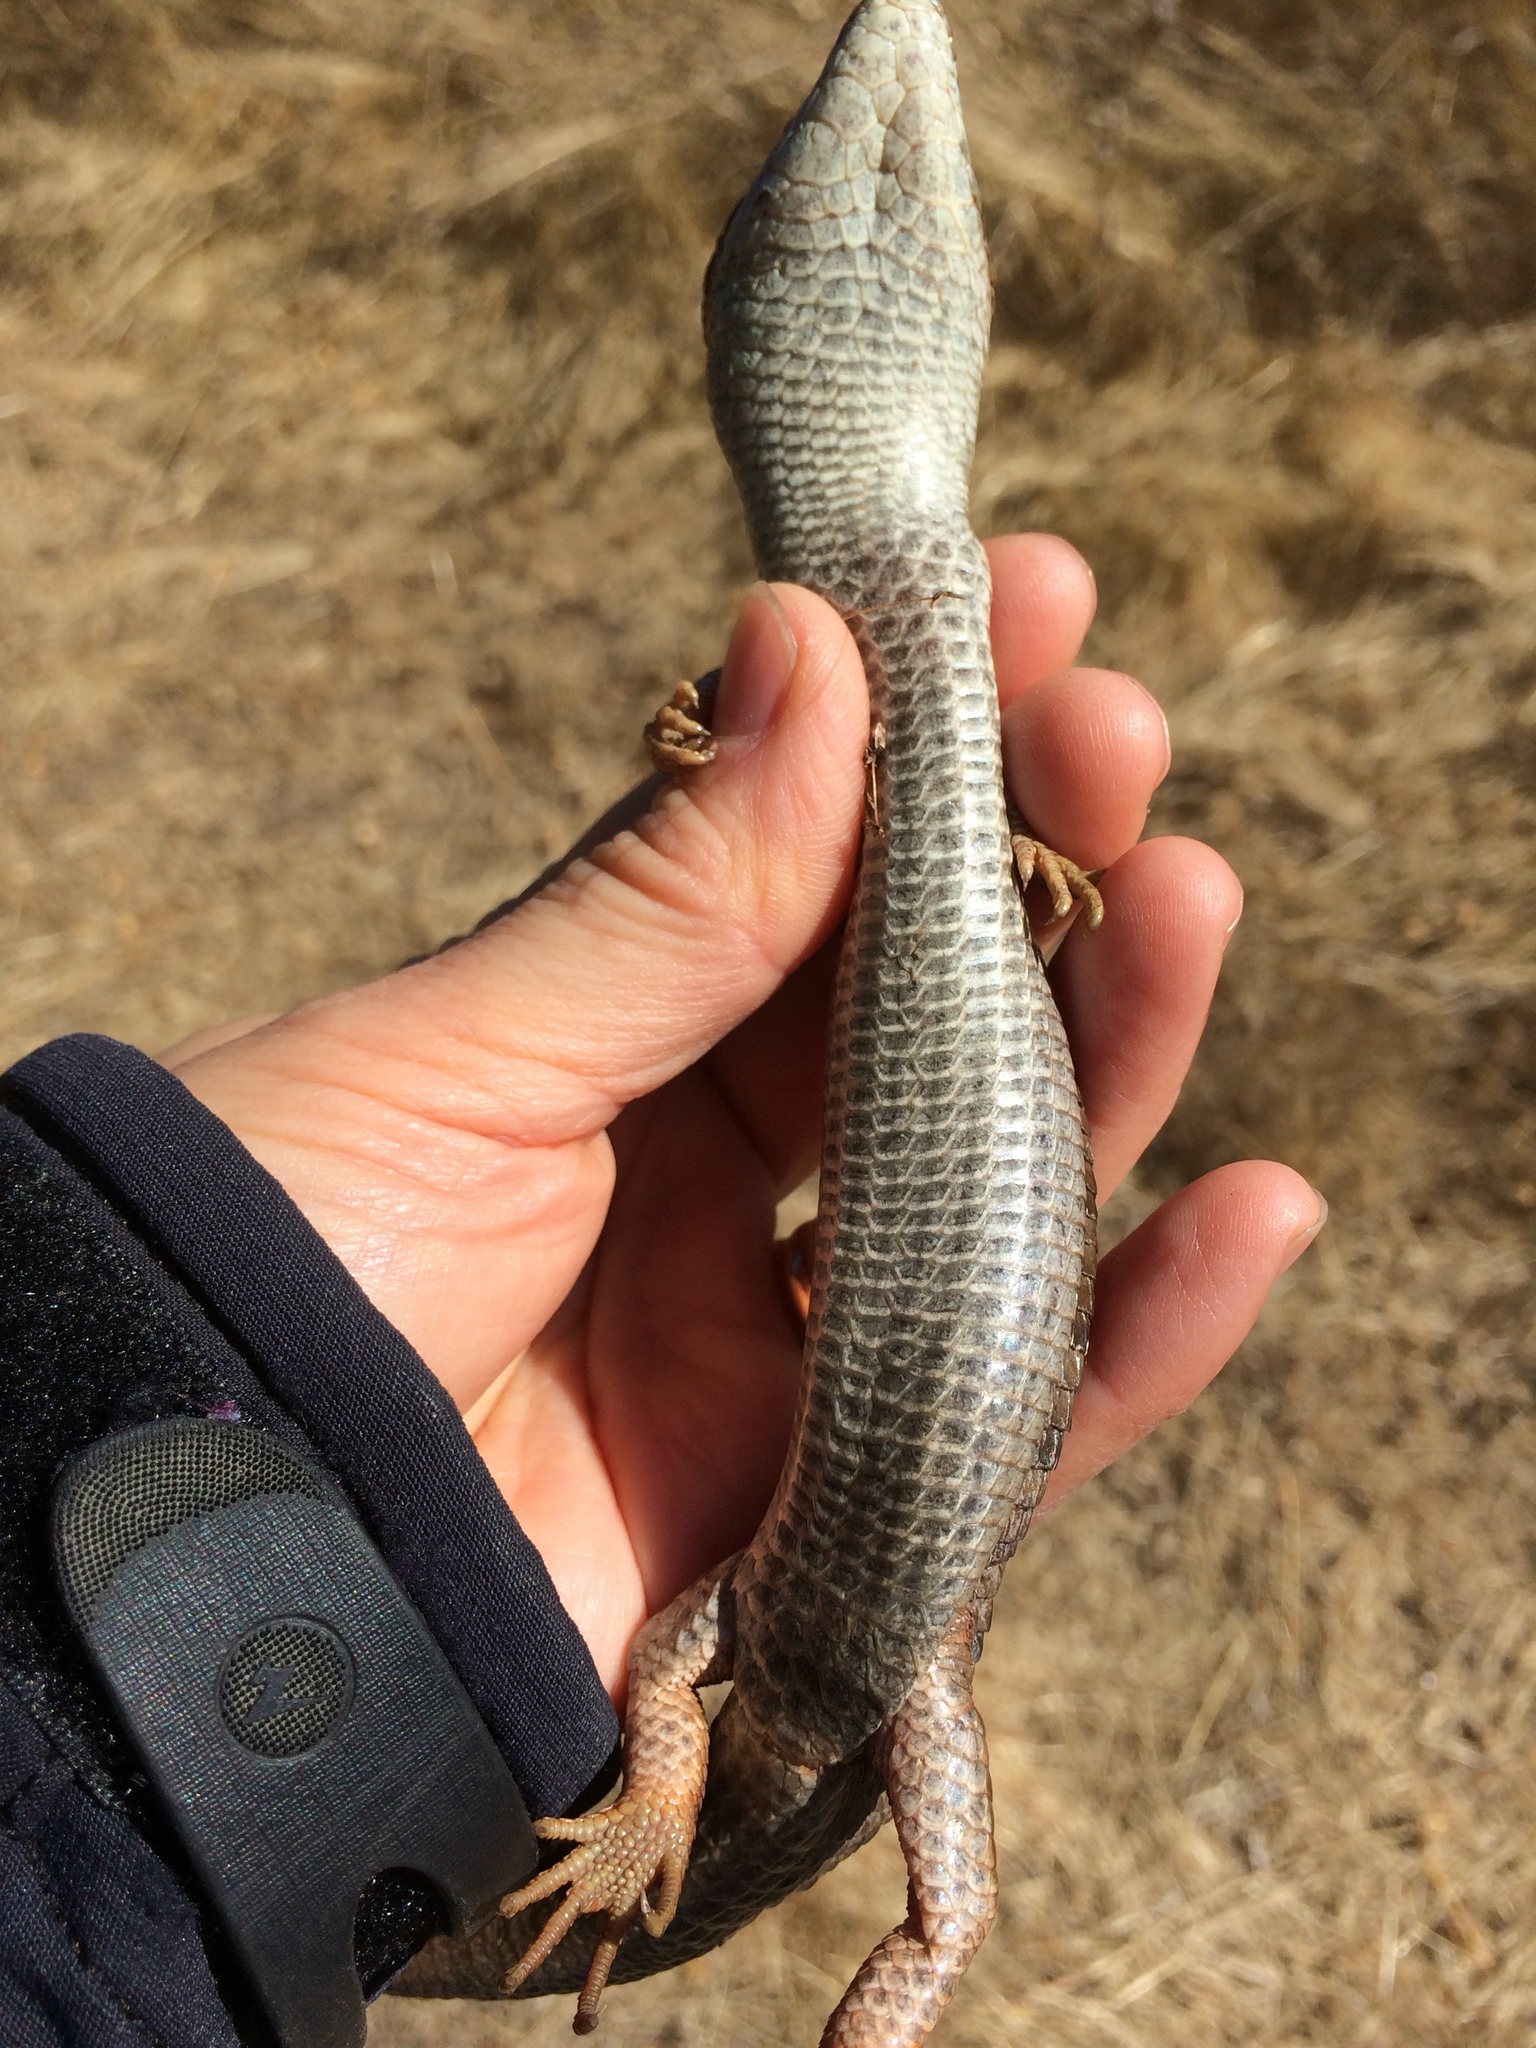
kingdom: Animalia
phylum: Chordata
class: Squamata
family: Anguidae
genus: Elgaria
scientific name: Elgaria multicarinata
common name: Southern alligator lizard
